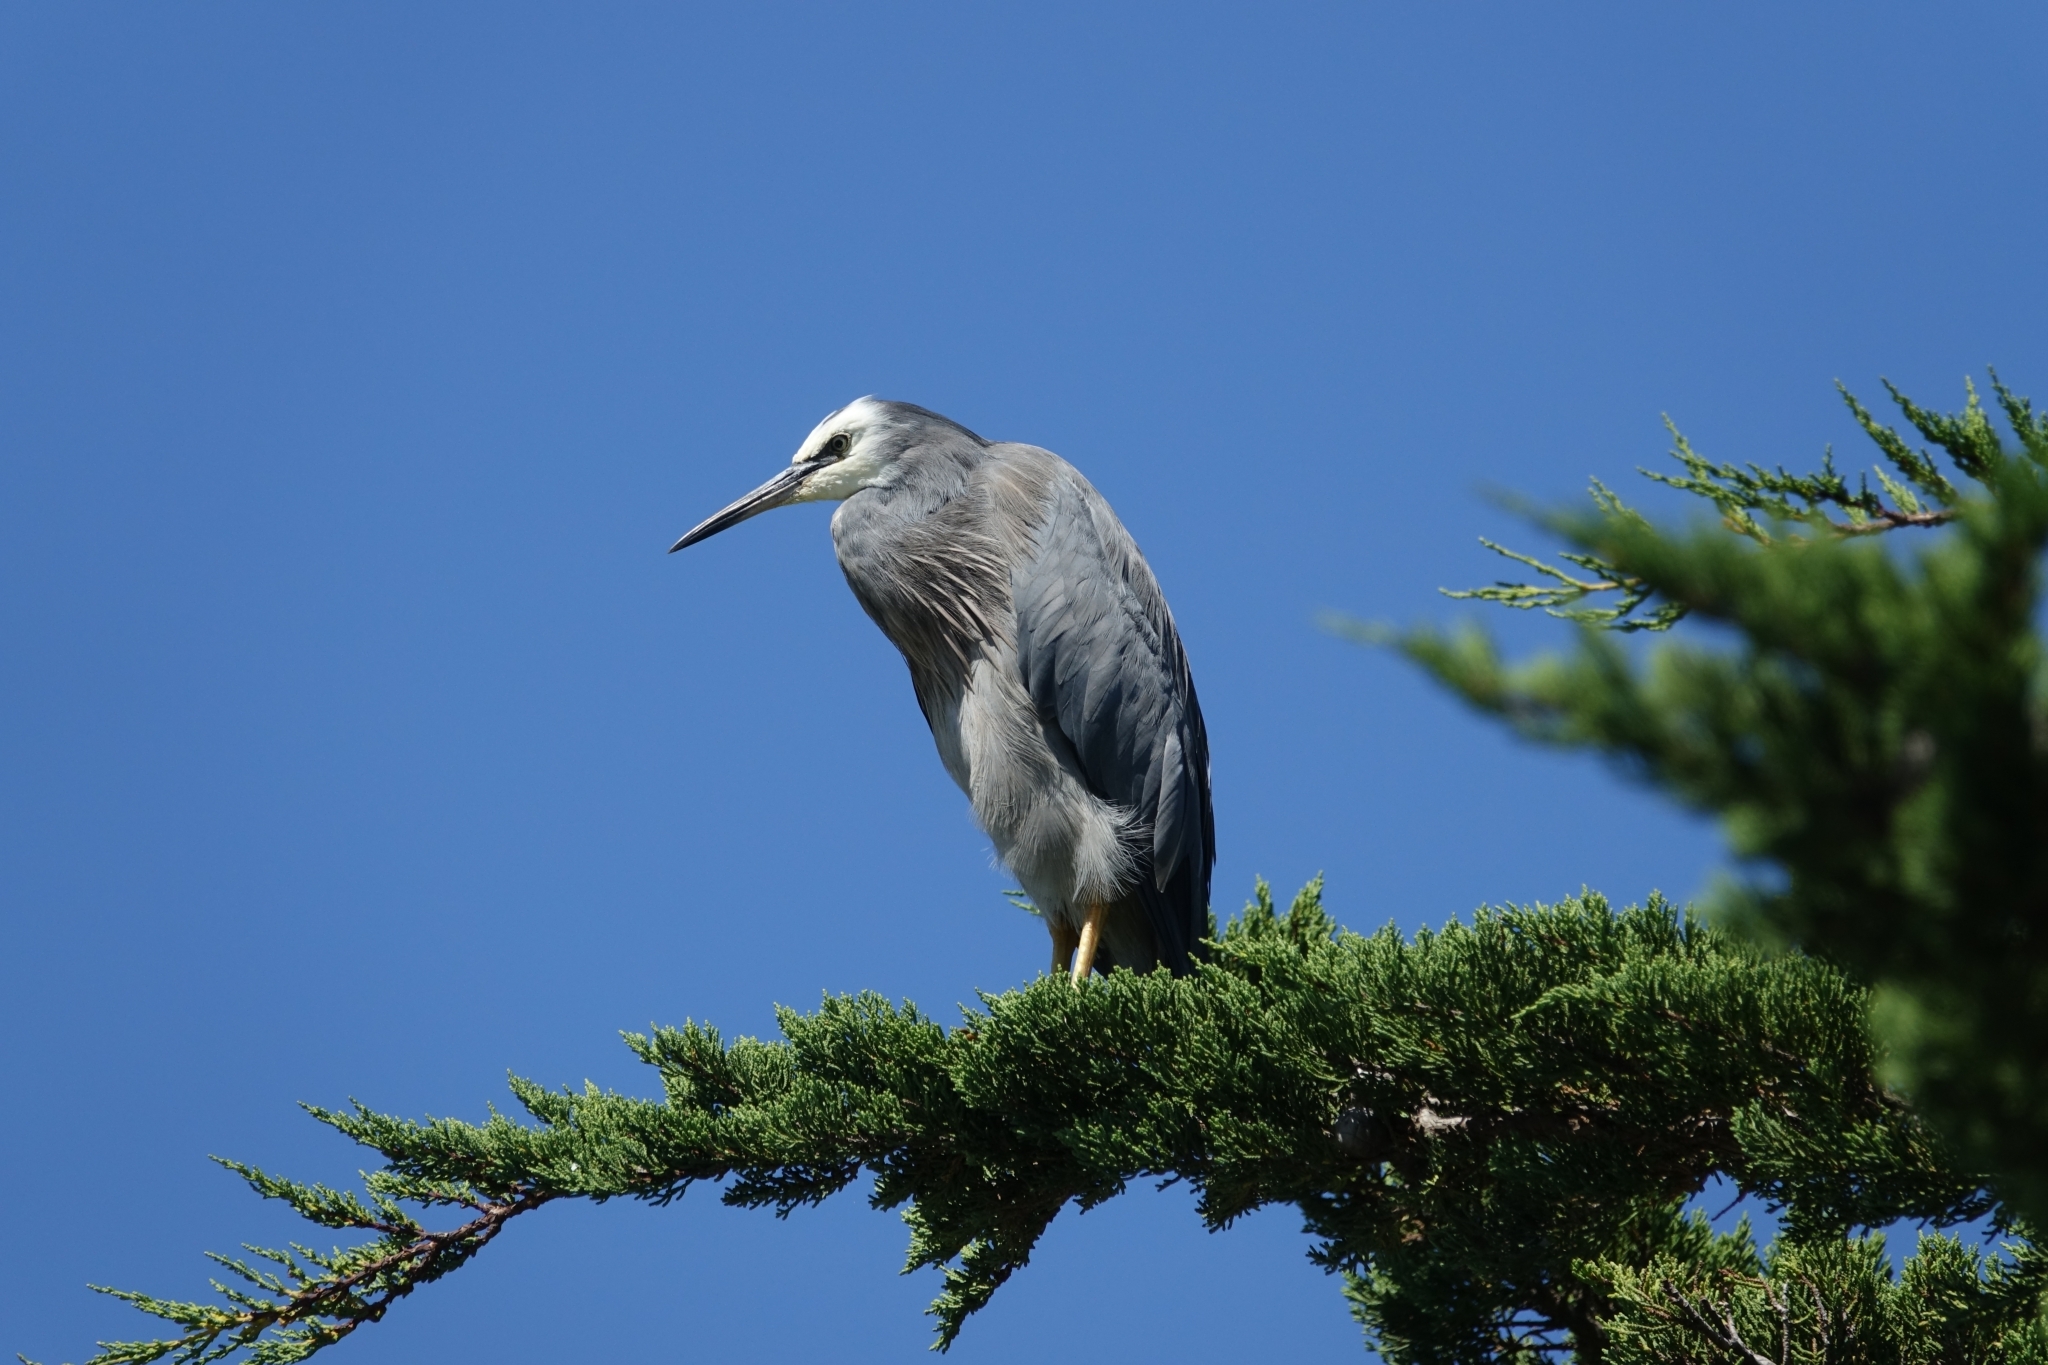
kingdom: Animalia
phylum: Chordata
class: Aves
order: Pelecaniformes
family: Ardeidae
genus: Egretta
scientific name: Egretta novaehollandiae
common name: White-faced heron
